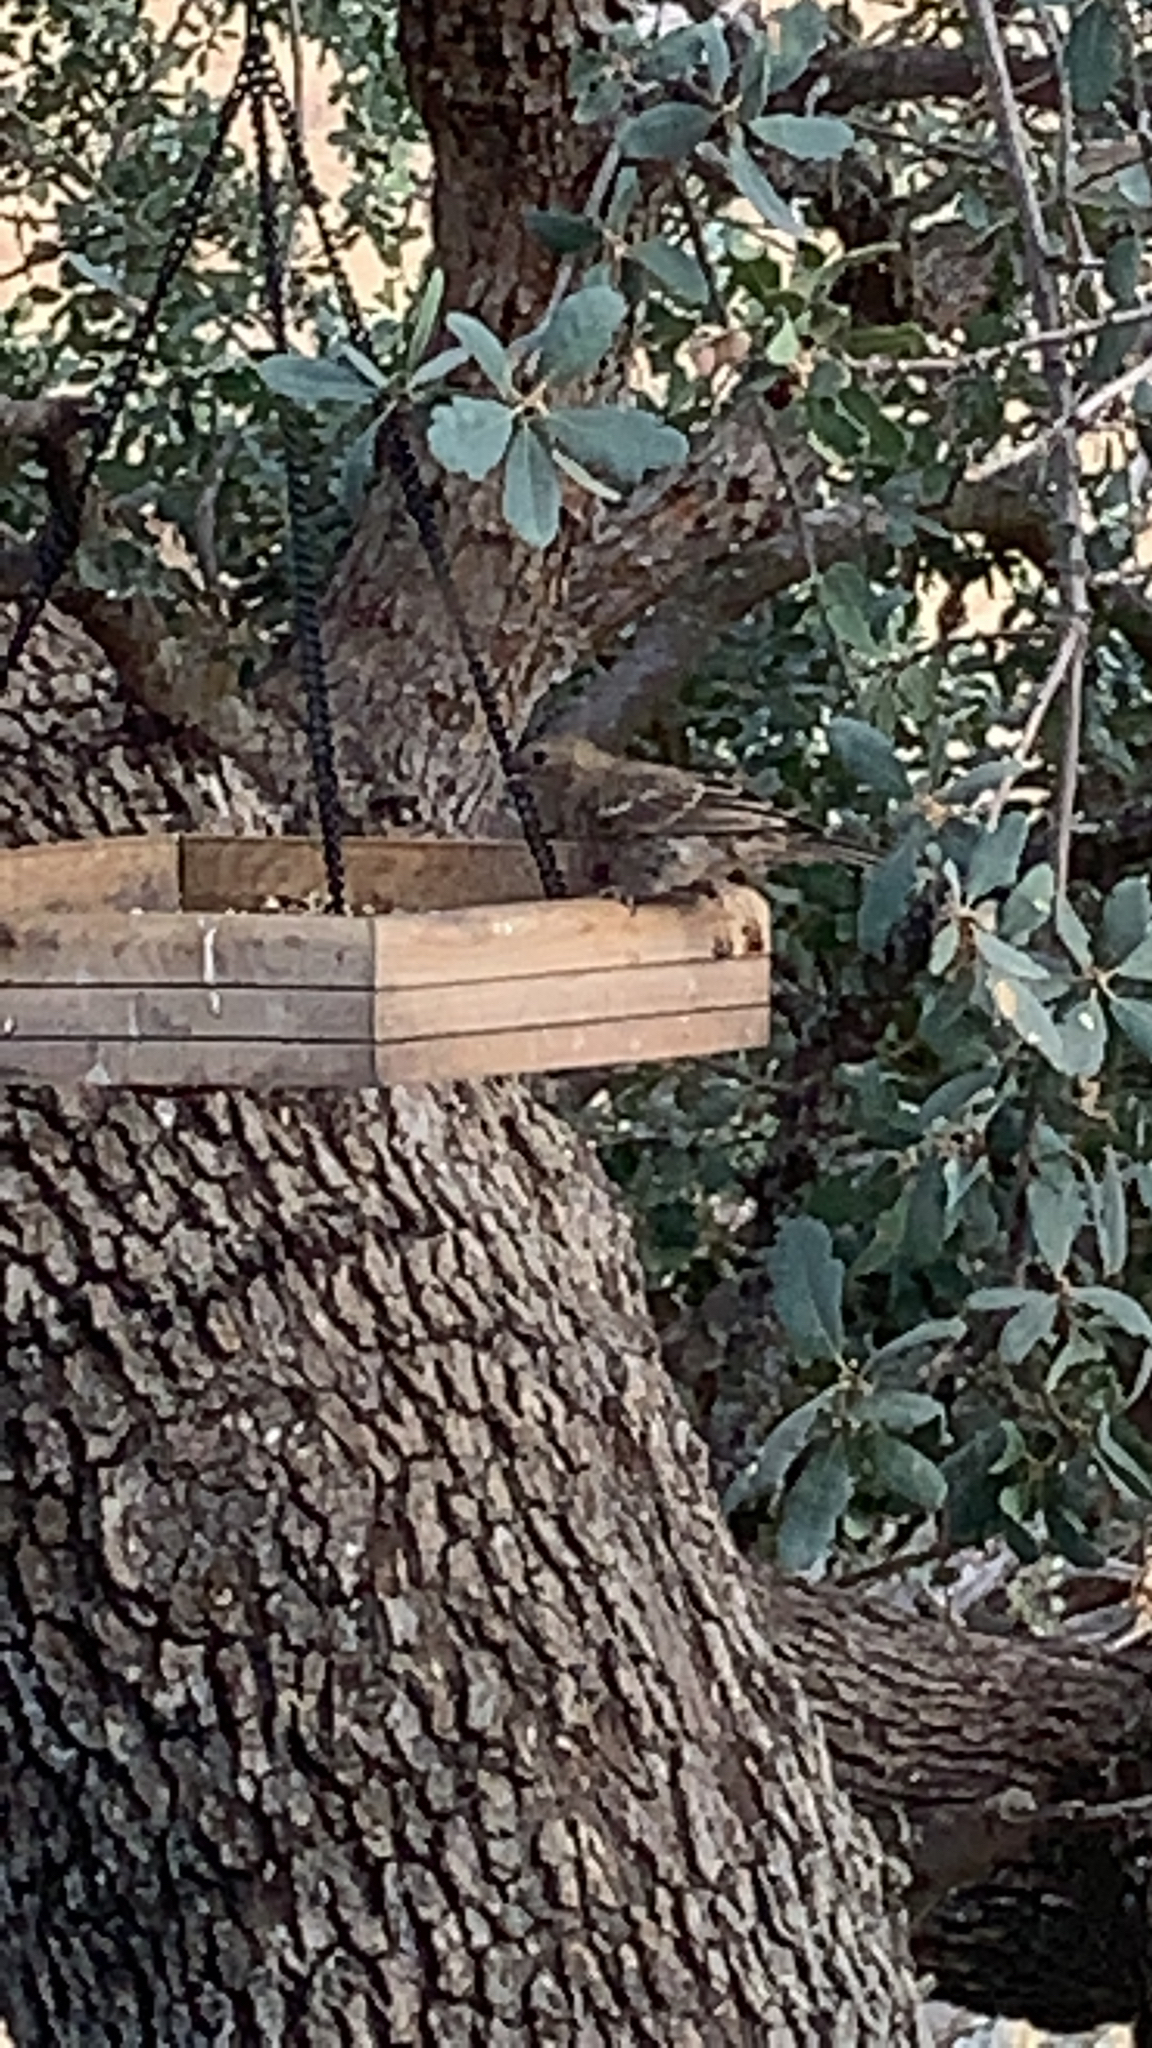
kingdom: Animalia
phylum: Chordata
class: Aves
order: Passeriformes
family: Fringillidae
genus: Haemorhous
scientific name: Haemorhous mexicanus
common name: House finch
